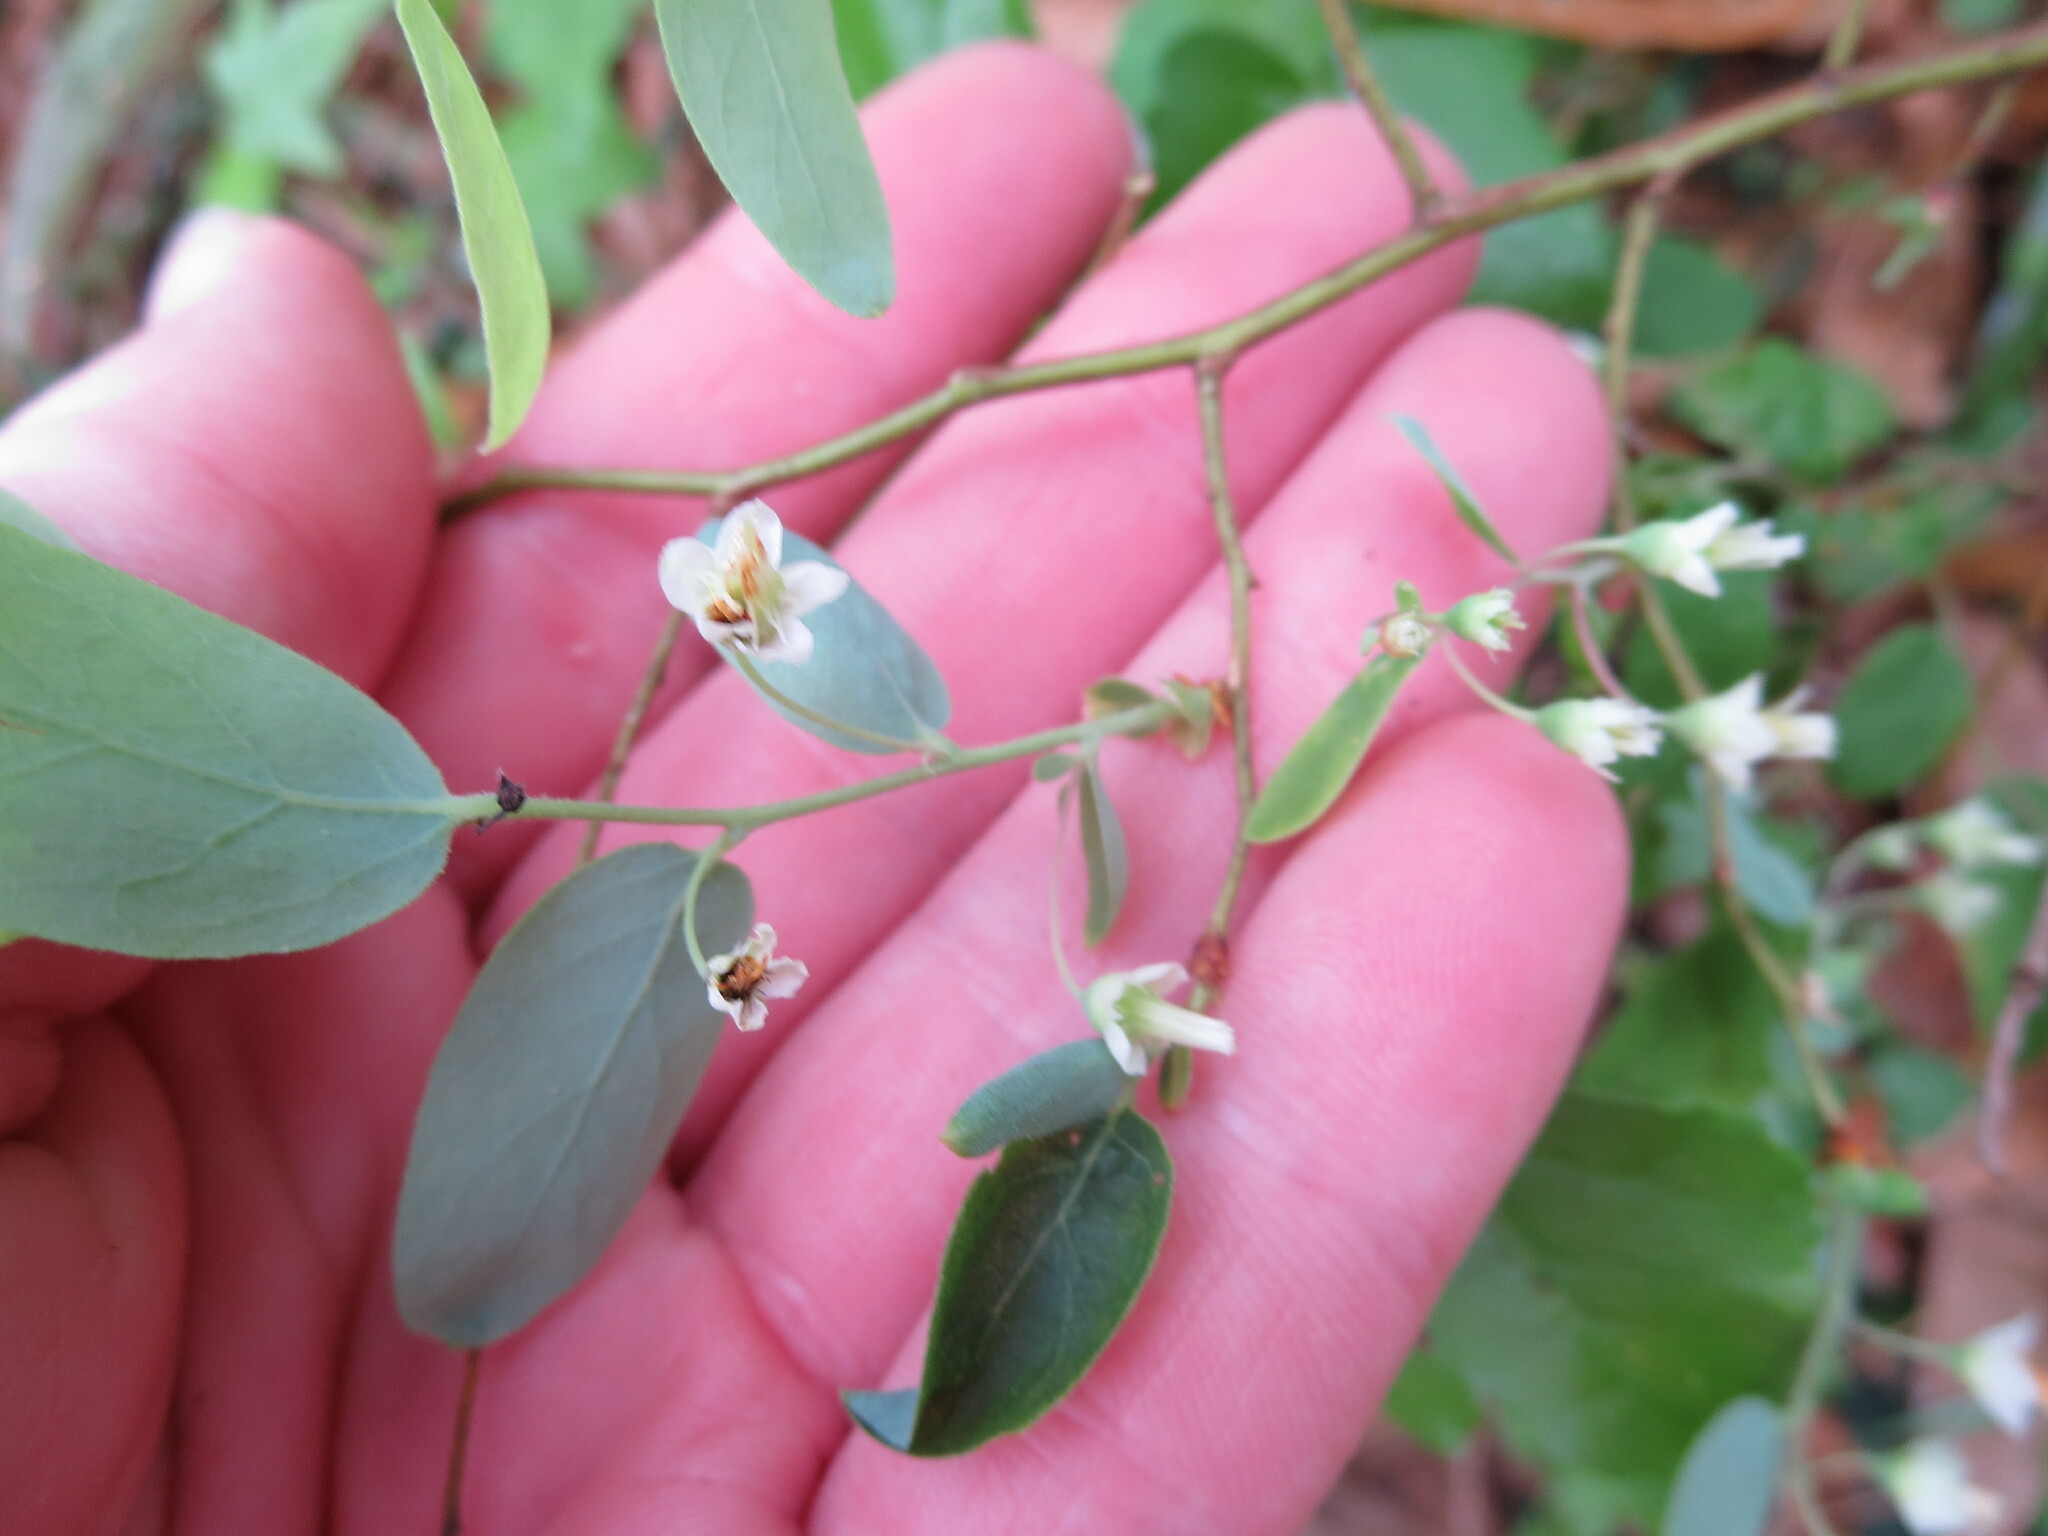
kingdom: Plantae
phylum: Tracheophyta
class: Magnoliopsida
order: Ericales
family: Ericaceae
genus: Vaccinium
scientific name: Vaccinium stamineum
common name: Deerberry
